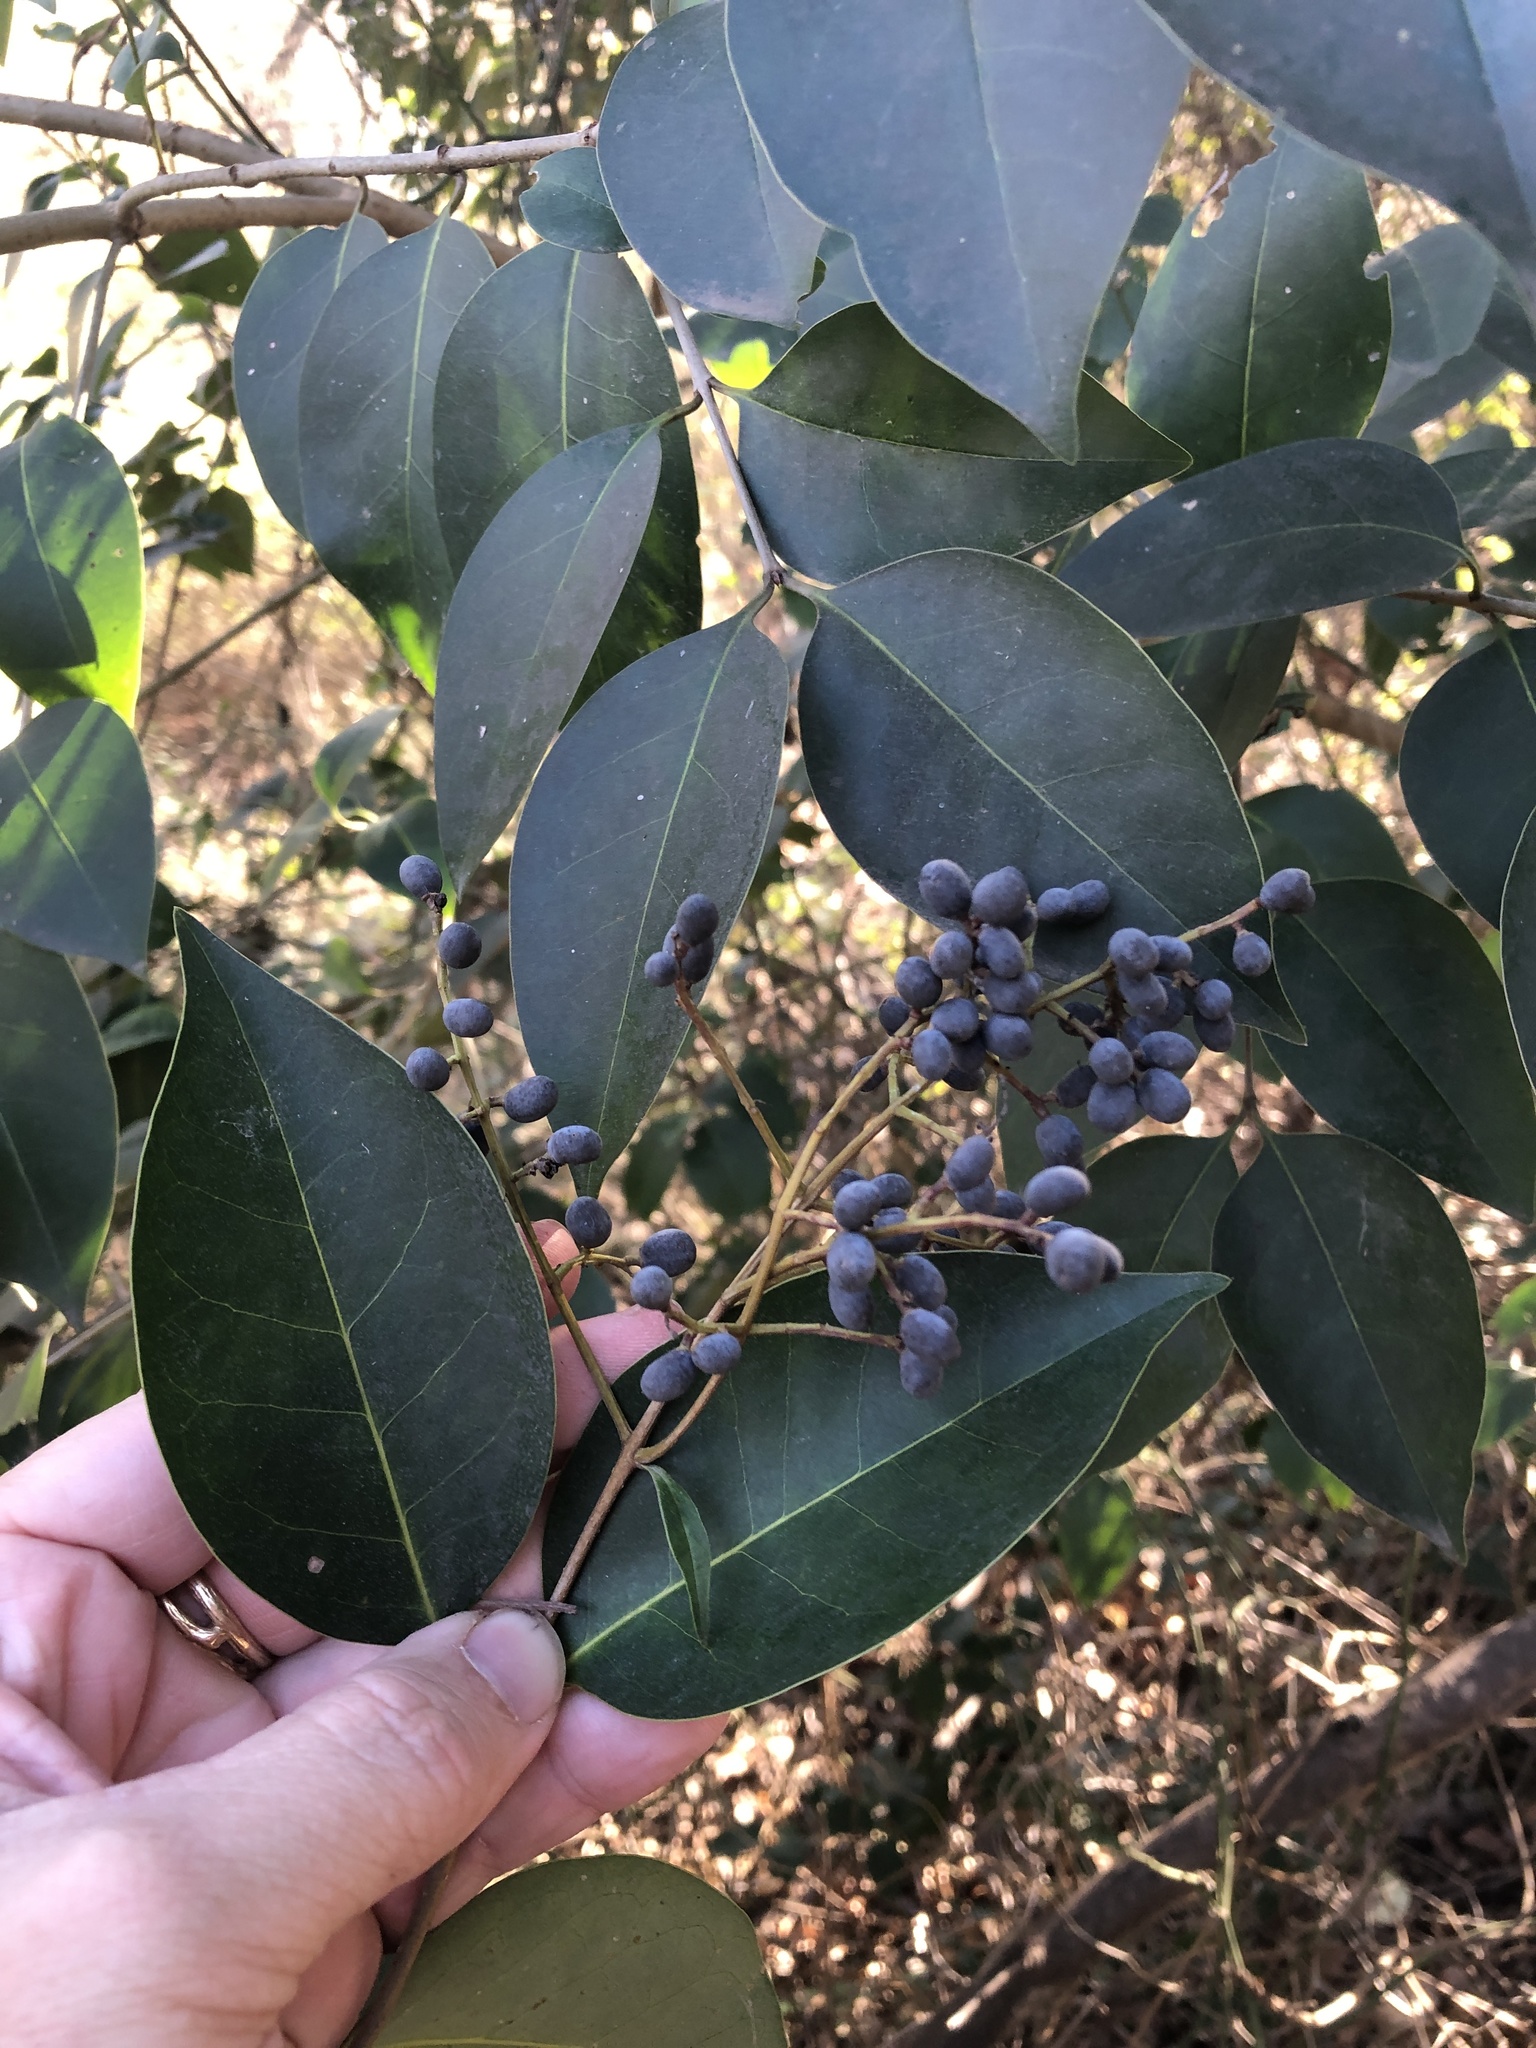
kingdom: Plantae
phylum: Tracheophyta
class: Magnoliopsida
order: Lamiales
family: Oleaceae
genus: Ligustrum
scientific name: Ligustrum lucidum
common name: Glossy privet
